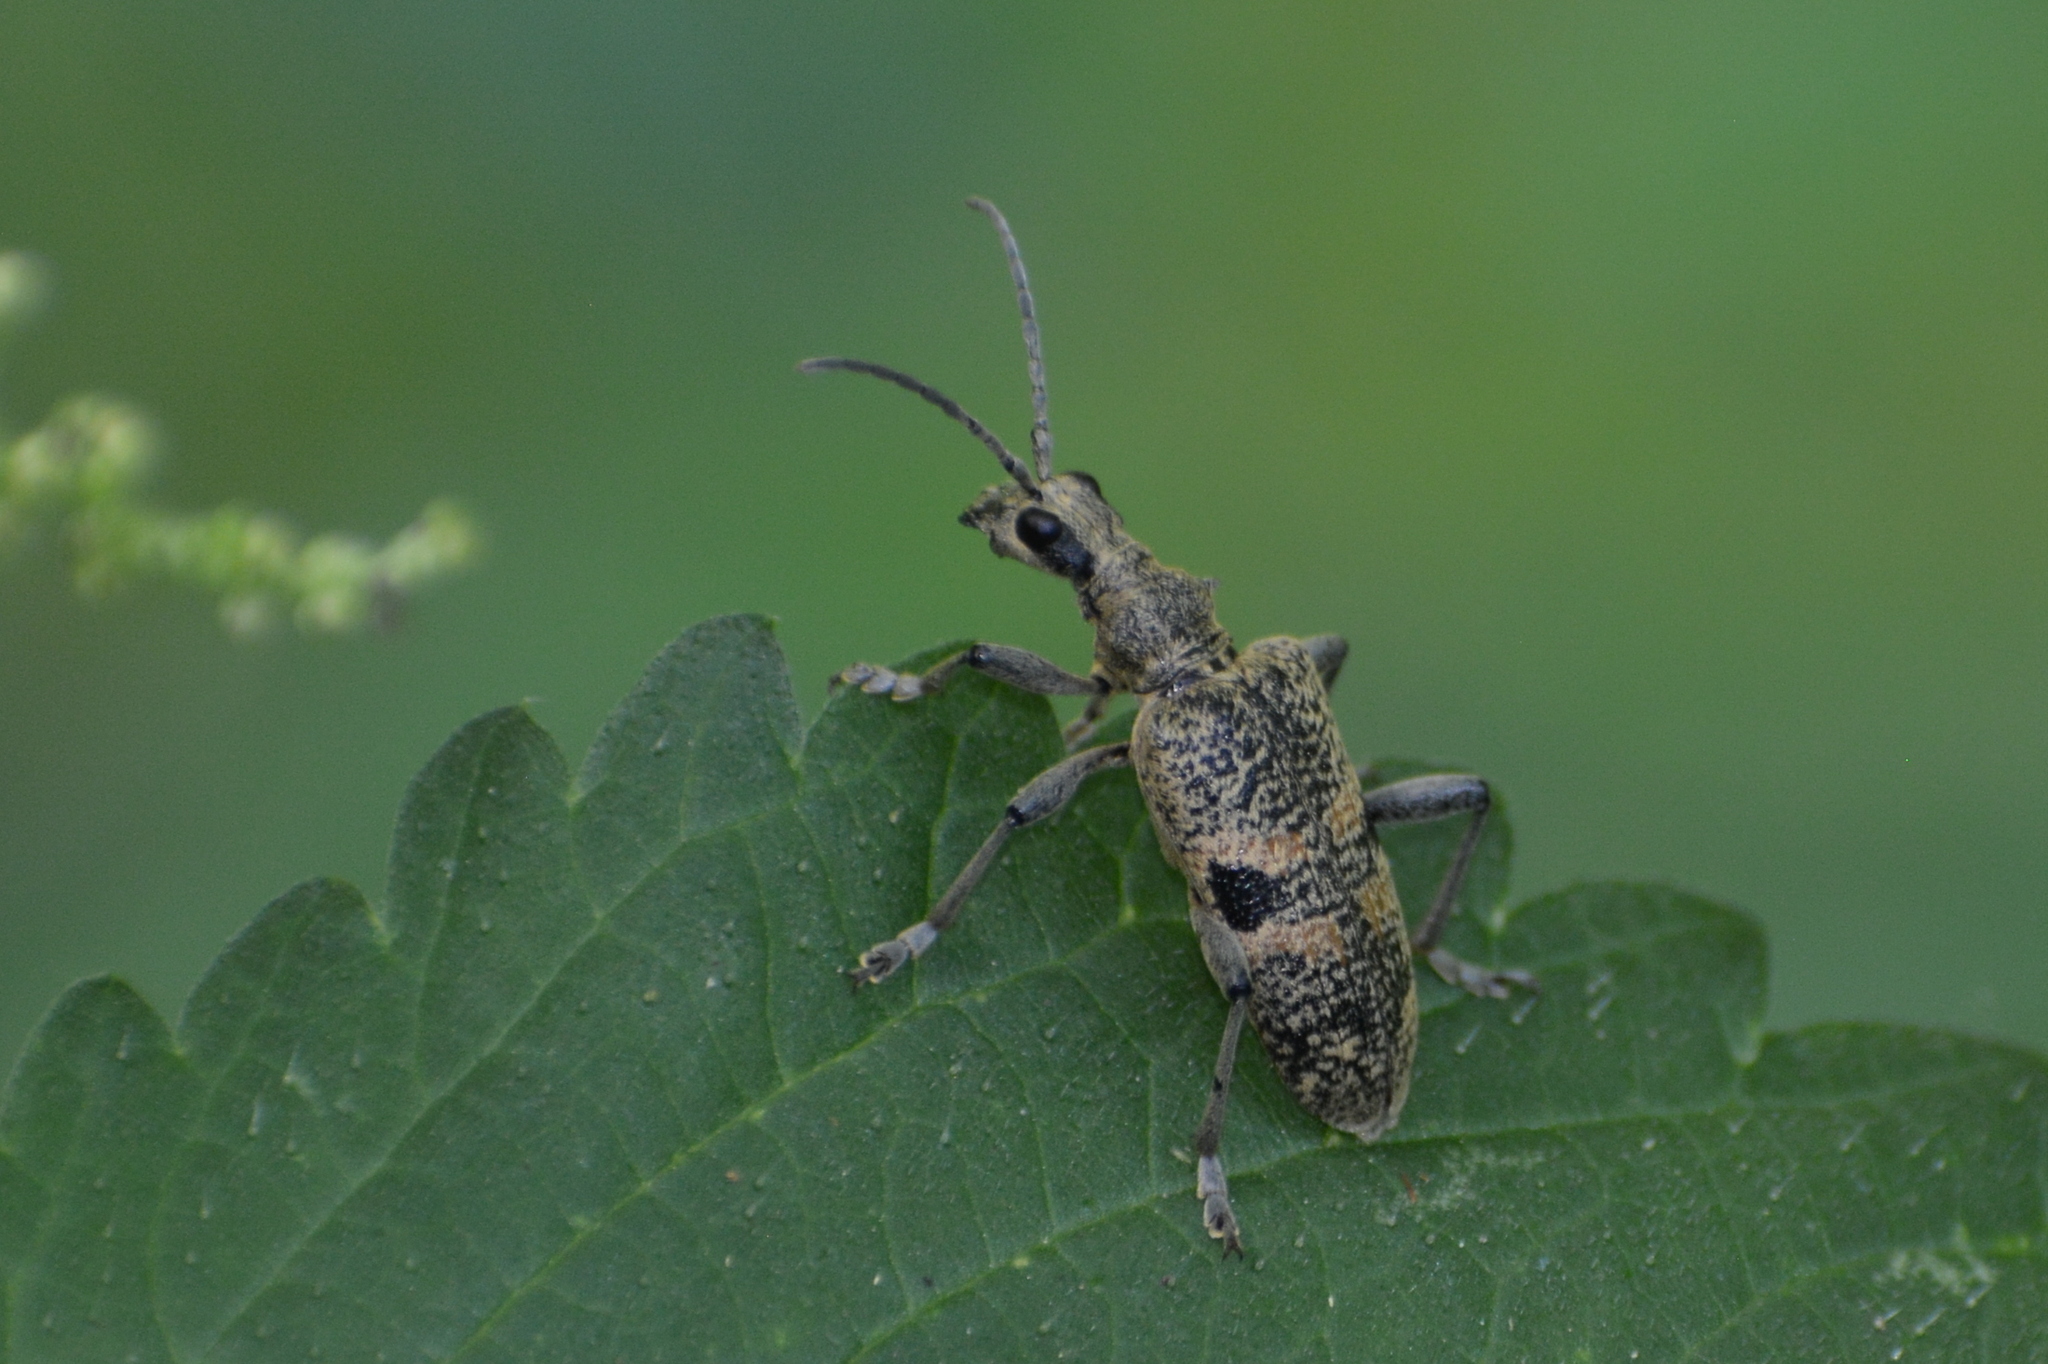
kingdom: Animalia
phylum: Arthropoda
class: Insecta
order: Coleoptera
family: Cerambycidae
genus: Rhagium
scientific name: Rhagium mordax
